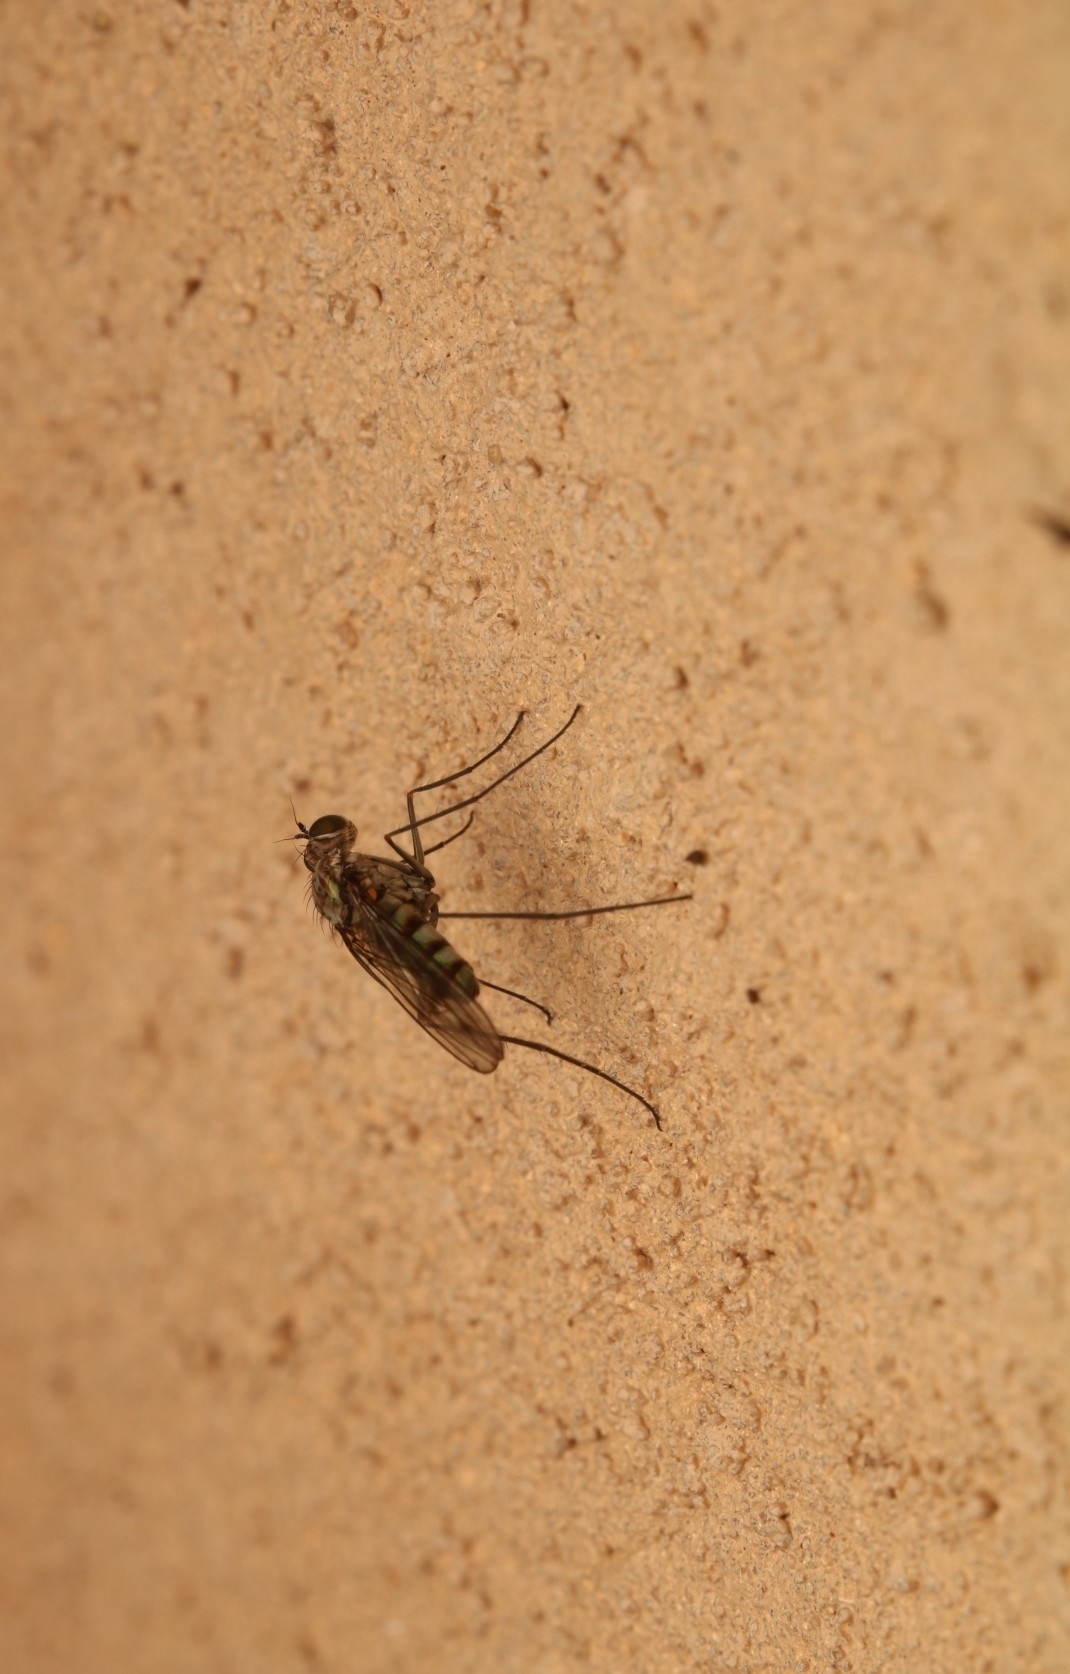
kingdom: Animalia
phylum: Arthropoda
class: Insecta
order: Diptera
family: Dolichopodidae
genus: Liancalus
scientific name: Liancalus genualis
